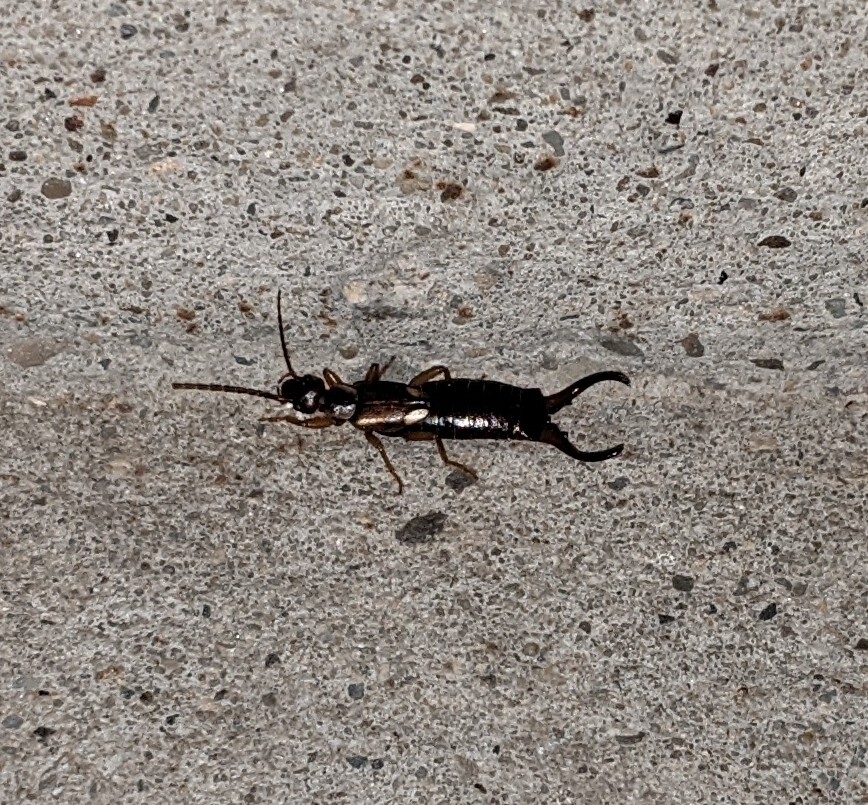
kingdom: Animalia
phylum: Arthropoda
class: Insecta
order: Dermaptera
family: Forficulidae
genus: Forficula
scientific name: Forficula
